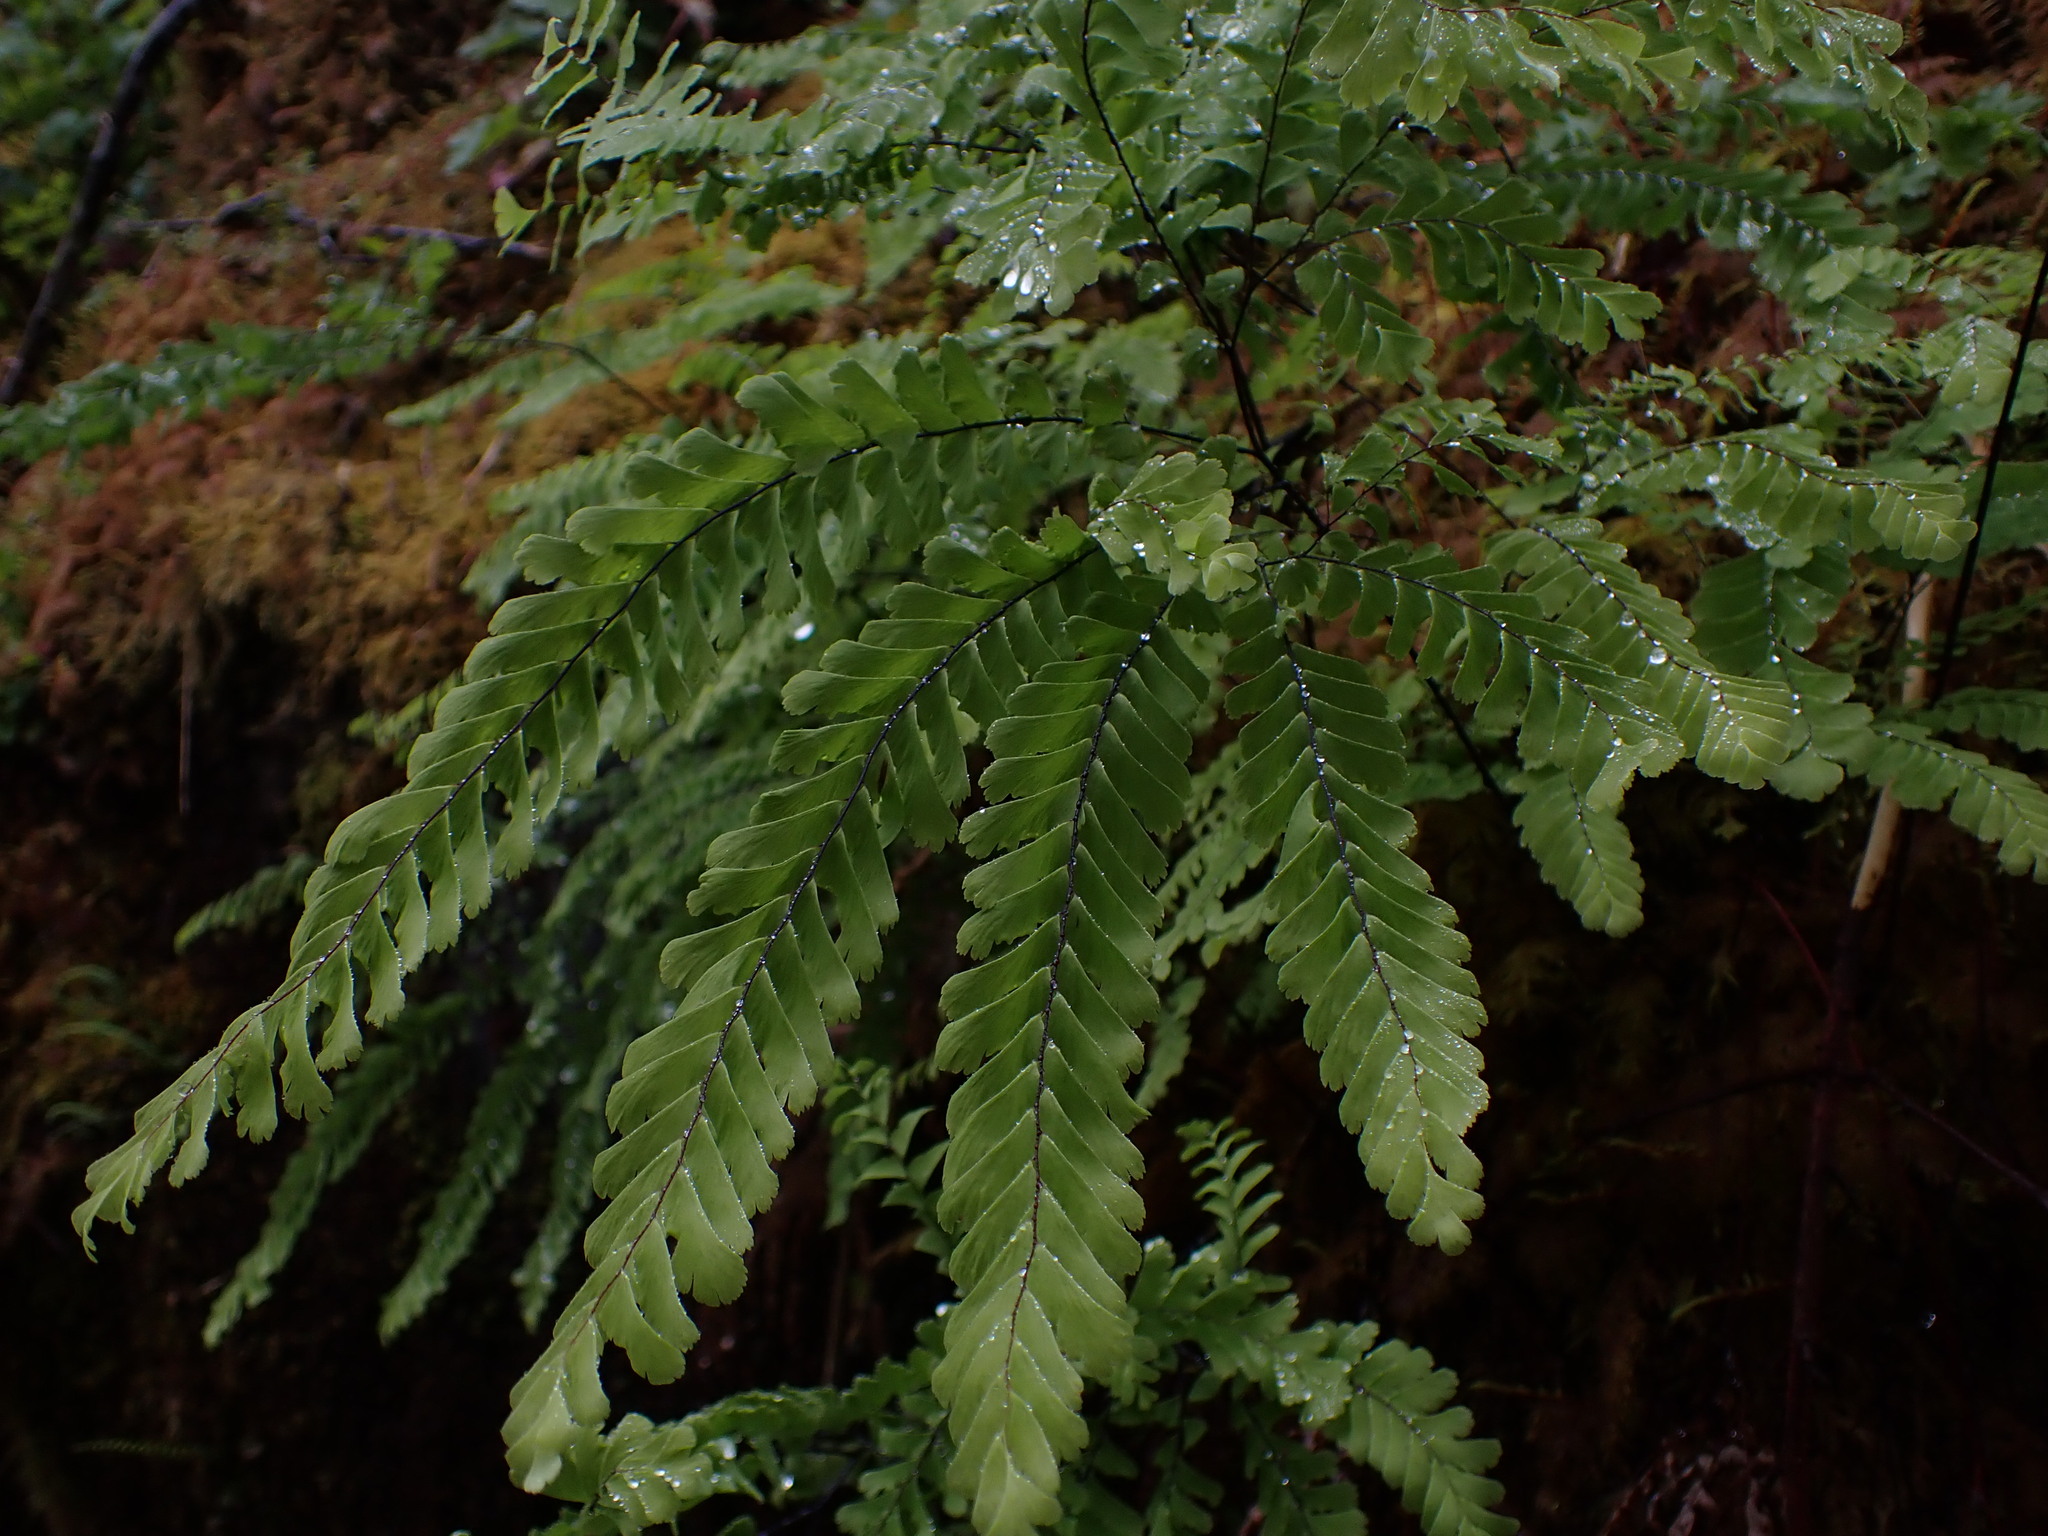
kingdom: Plantae
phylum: Tracheophyta
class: Polypodiopsida
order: Polypodiales
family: Pteridaceae
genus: Adiantum
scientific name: Adiantum aleuticum
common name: Aleutian maidenhair fern
